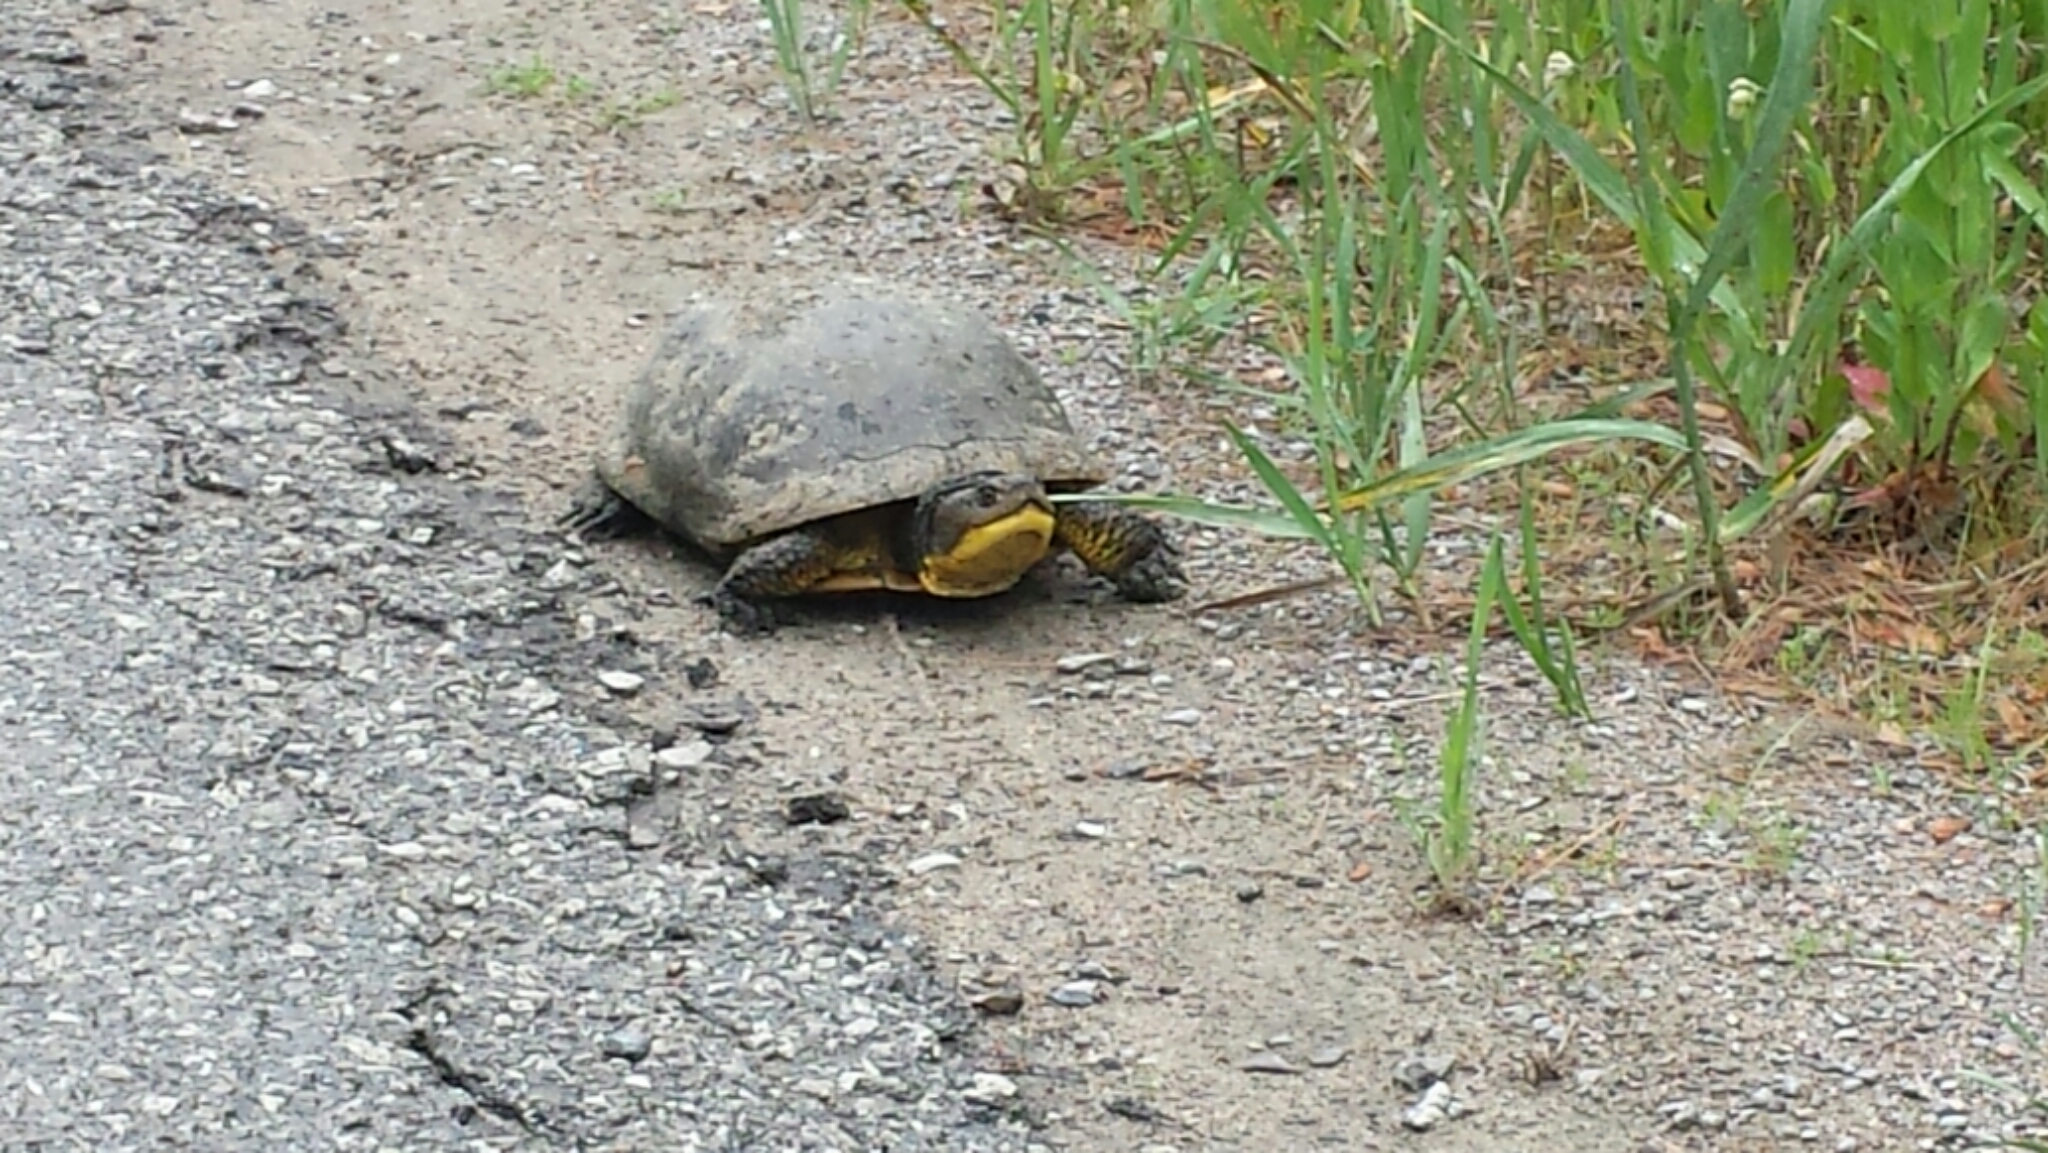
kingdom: Animalia
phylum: Chordata
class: Testudines
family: Emydidae
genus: Emys
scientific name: Emys blandingii
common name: Blanding's turtle
